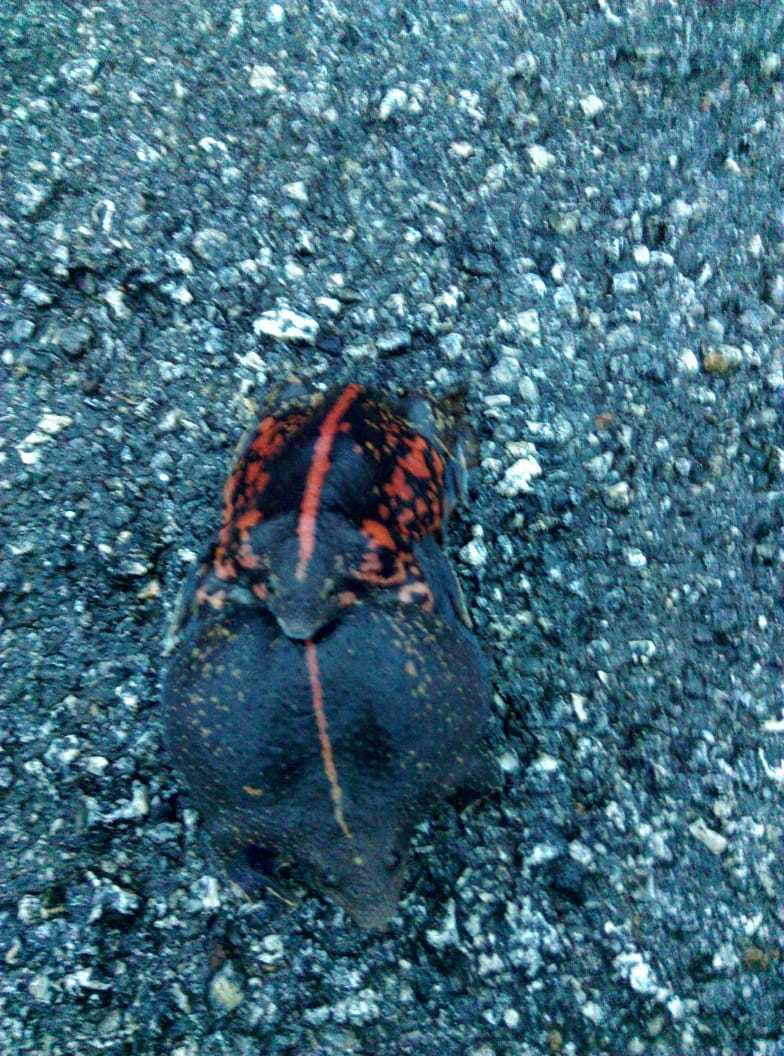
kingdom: Animalia
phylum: Chordata
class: Amphibia
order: Anura
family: Rhinophrynidae
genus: Rhinophrynus
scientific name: Rhinophrynus dorsalis
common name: Mexican burrowing toad
